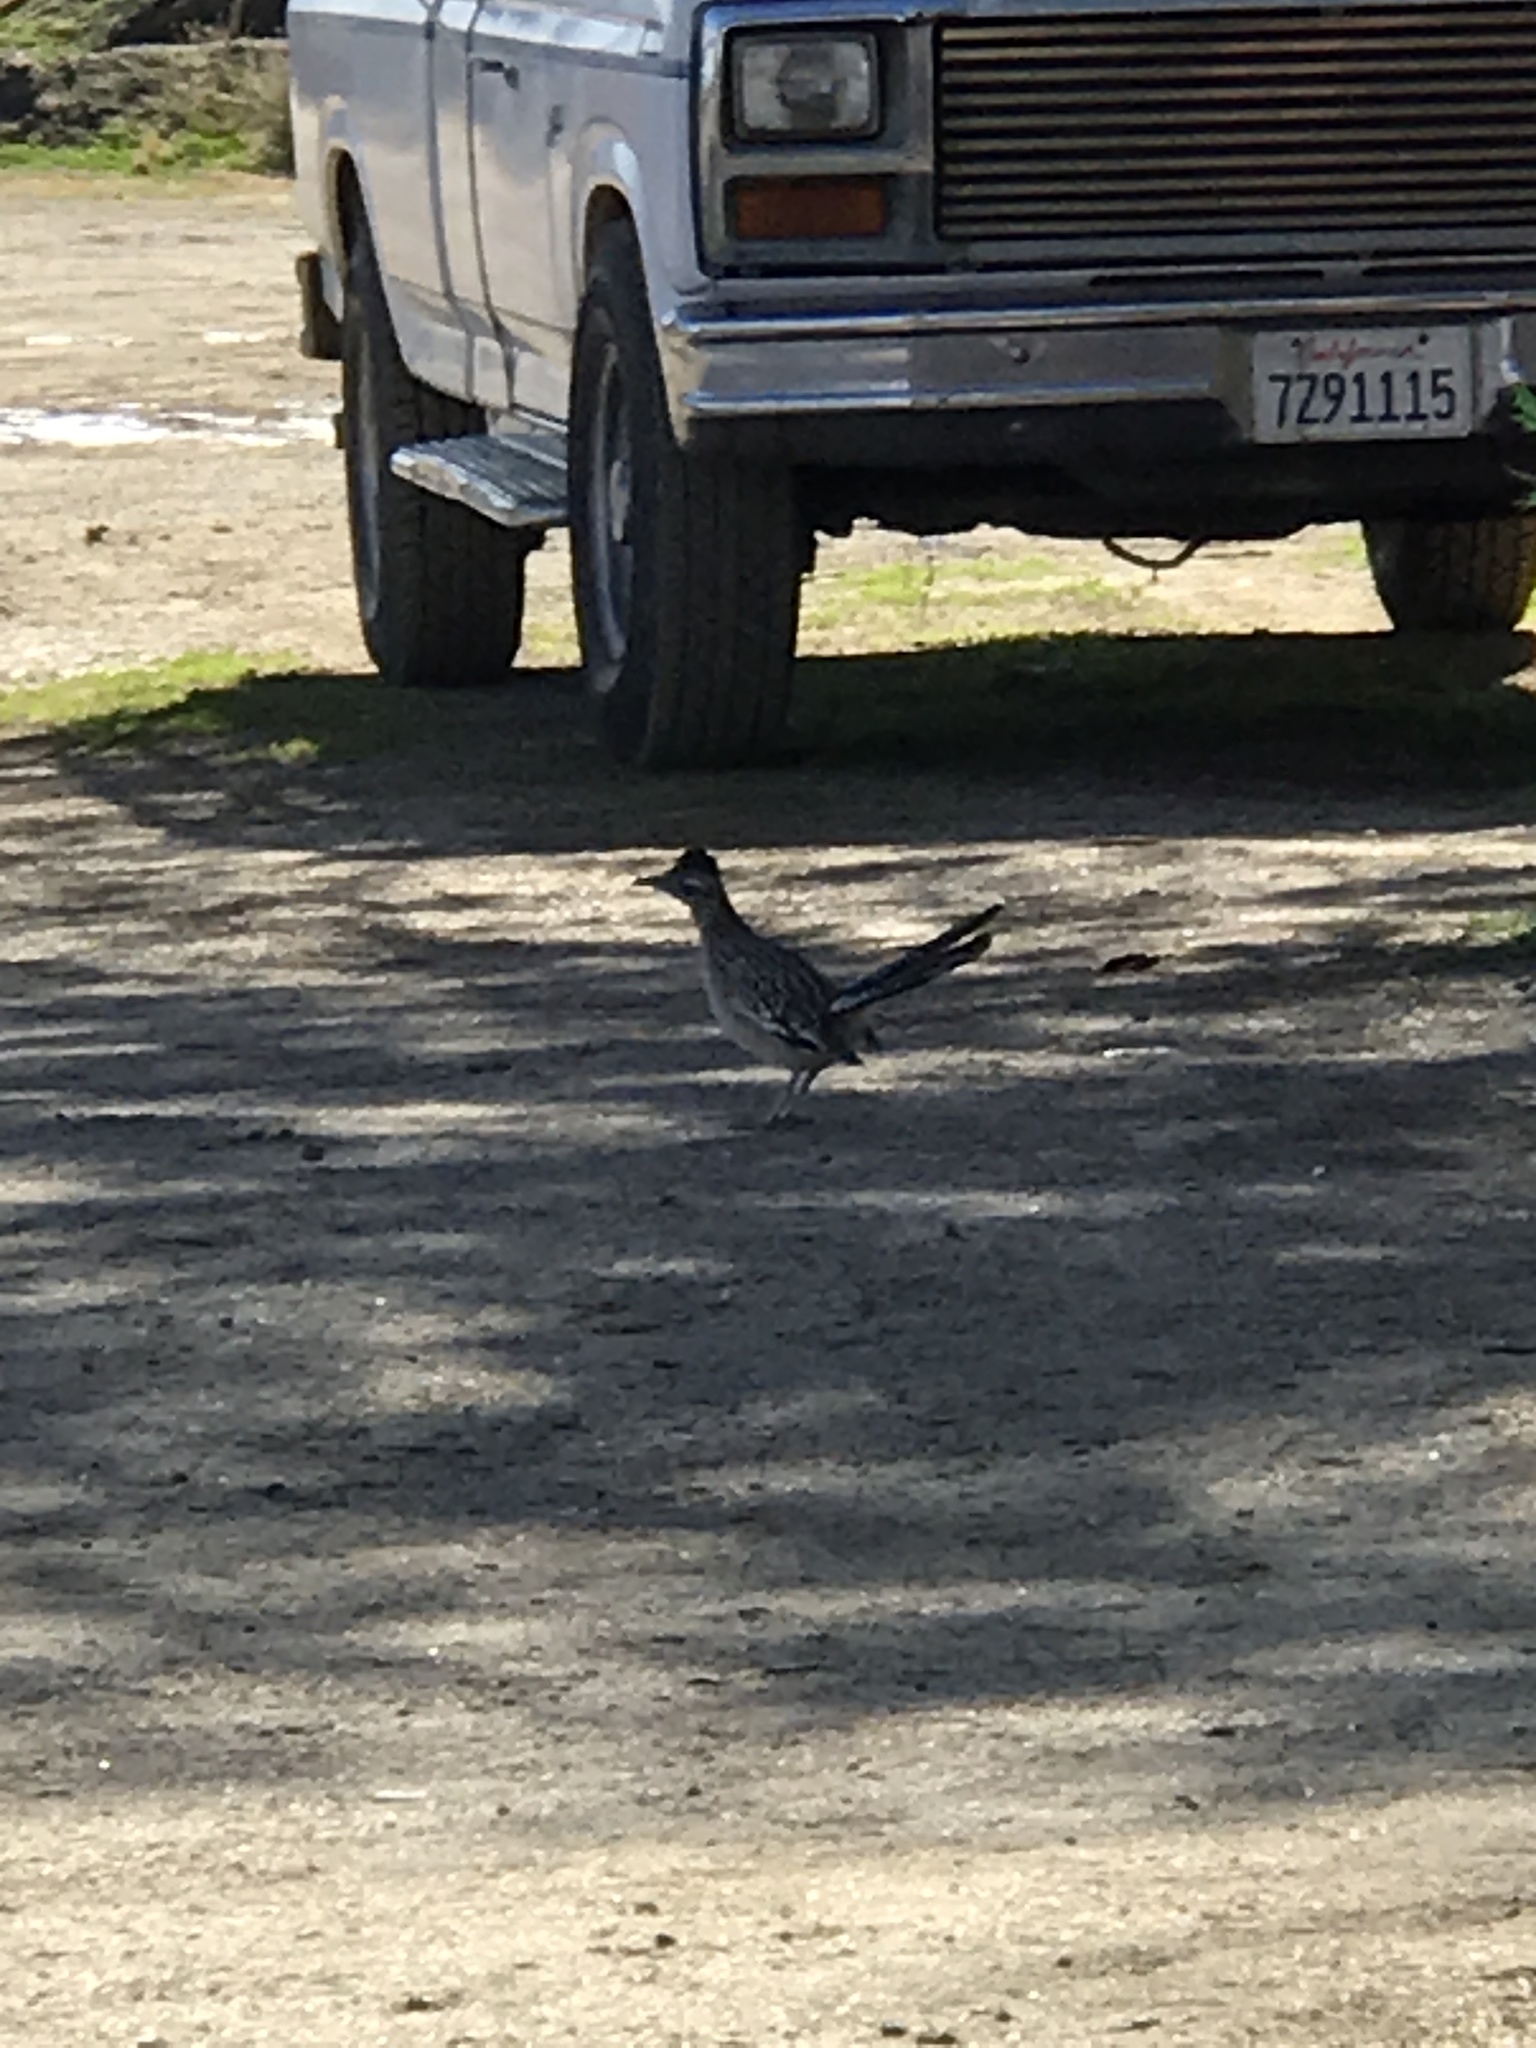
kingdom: Animalia
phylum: Chordata
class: Aves
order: Cuculiformes
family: Cuculidae
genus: Geococcyx
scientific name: Geococcyx californianus
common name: Greater roadrunner
